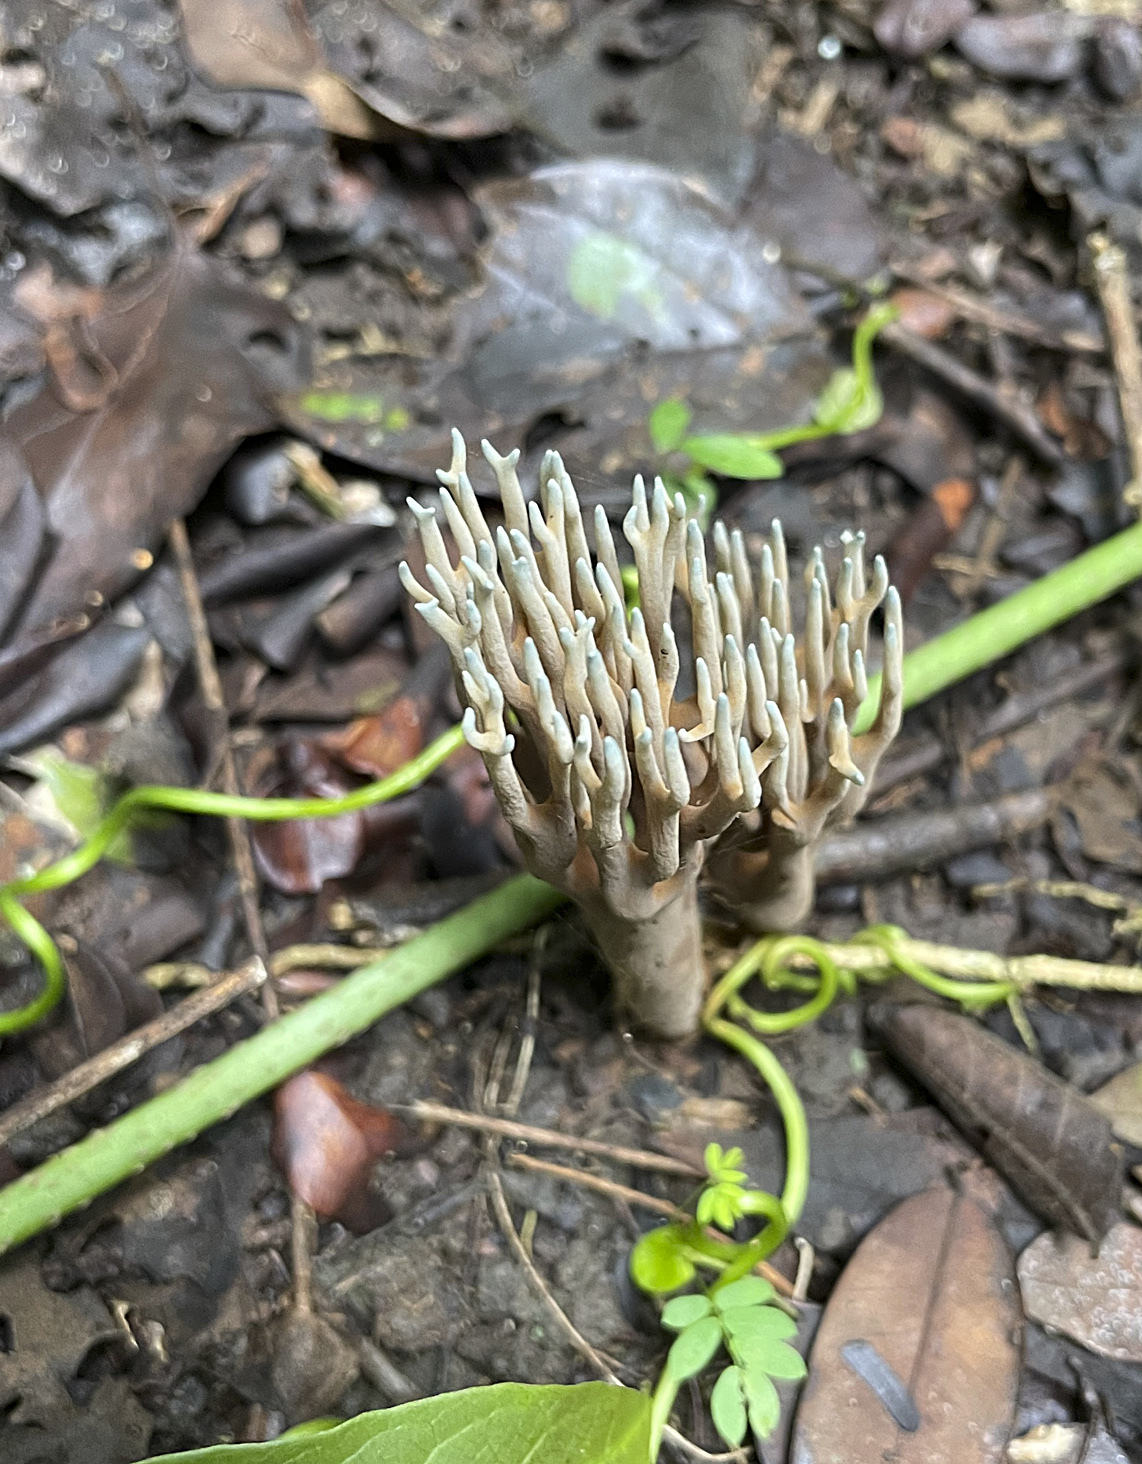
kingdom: Fungi
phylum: Basidiomycota
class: Agaricomycetes
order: Gomphales
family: Gomphaceae
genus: Phaeoclavulina
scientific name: Phaeoclavulina cyanocephala
